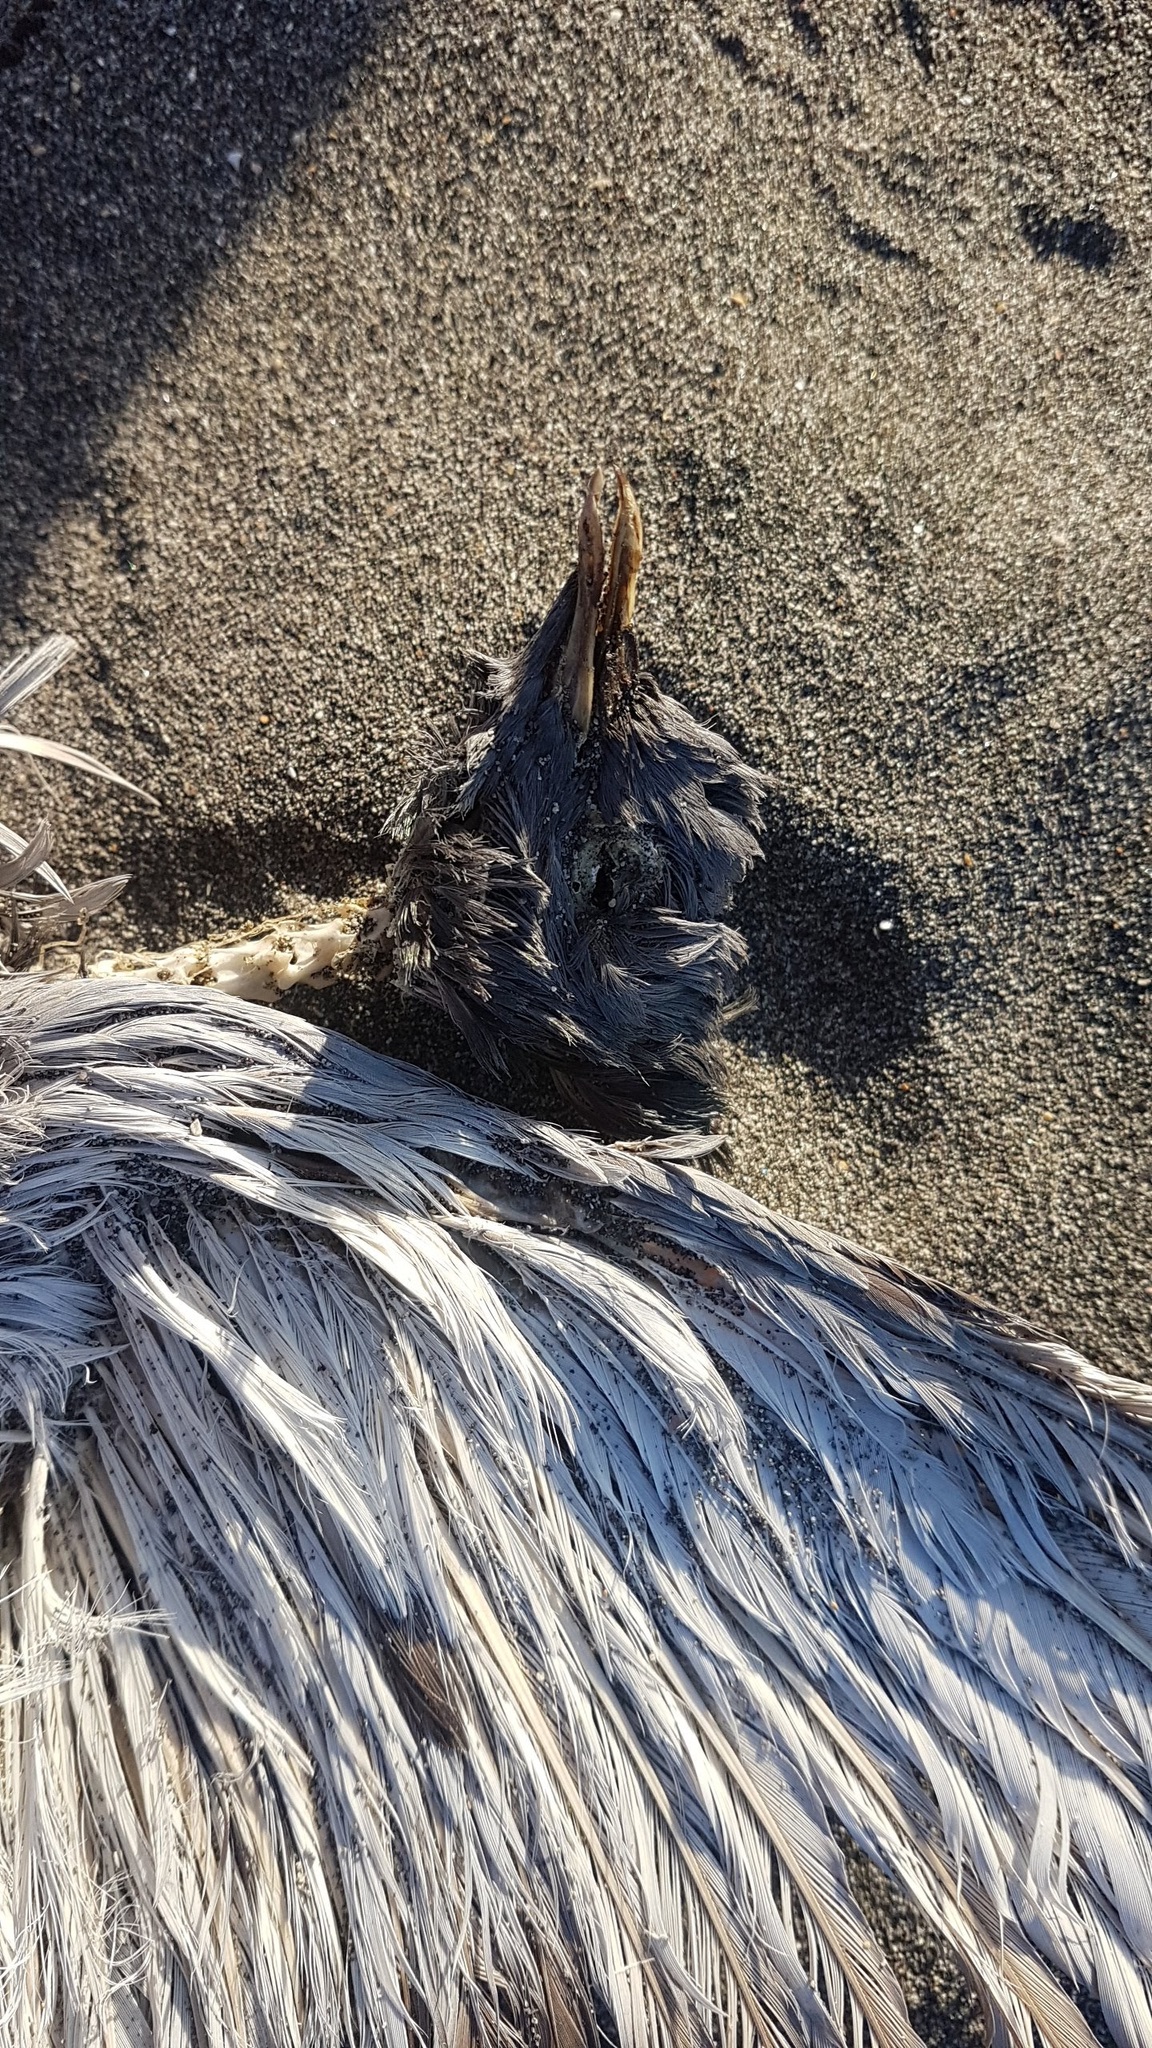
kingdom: Animalia
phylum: Chordata
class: Aves
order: Columbiformes
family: Columbidae
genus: Columba
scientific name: Columba livia
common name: Rock pigeon
